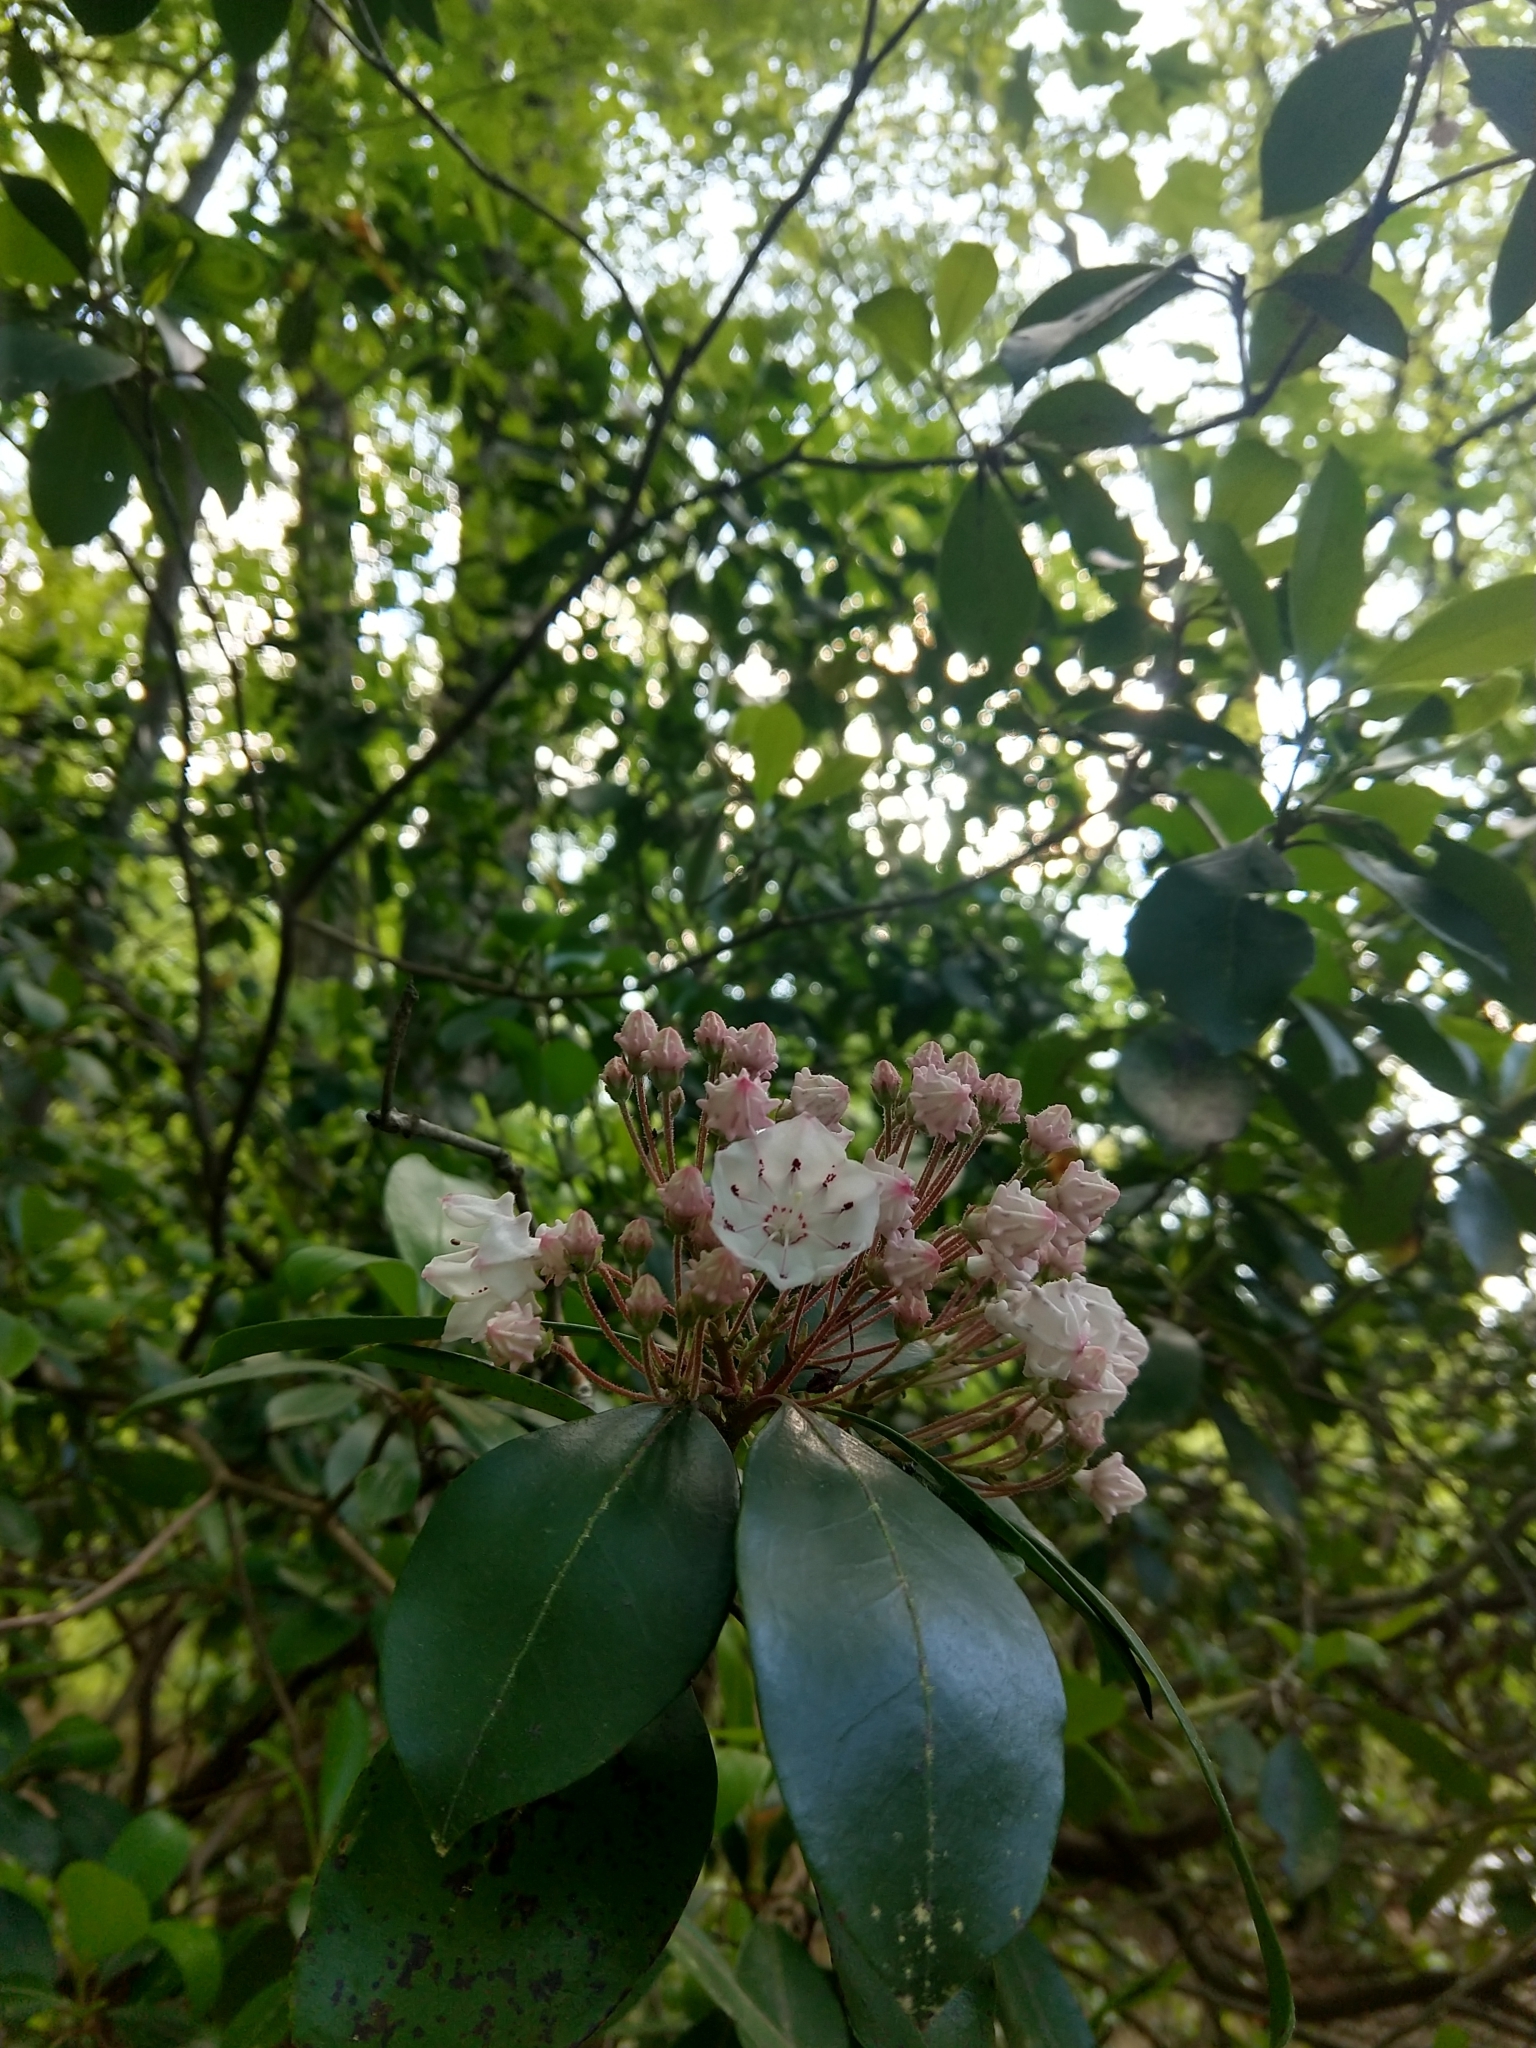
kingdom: Plantae
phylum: Tracheophyta
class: Magnoliopsida
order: Ericales
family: Ericaceae
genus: Kalmia
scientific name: Kalmia latifolia
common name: Mountain-laurel
